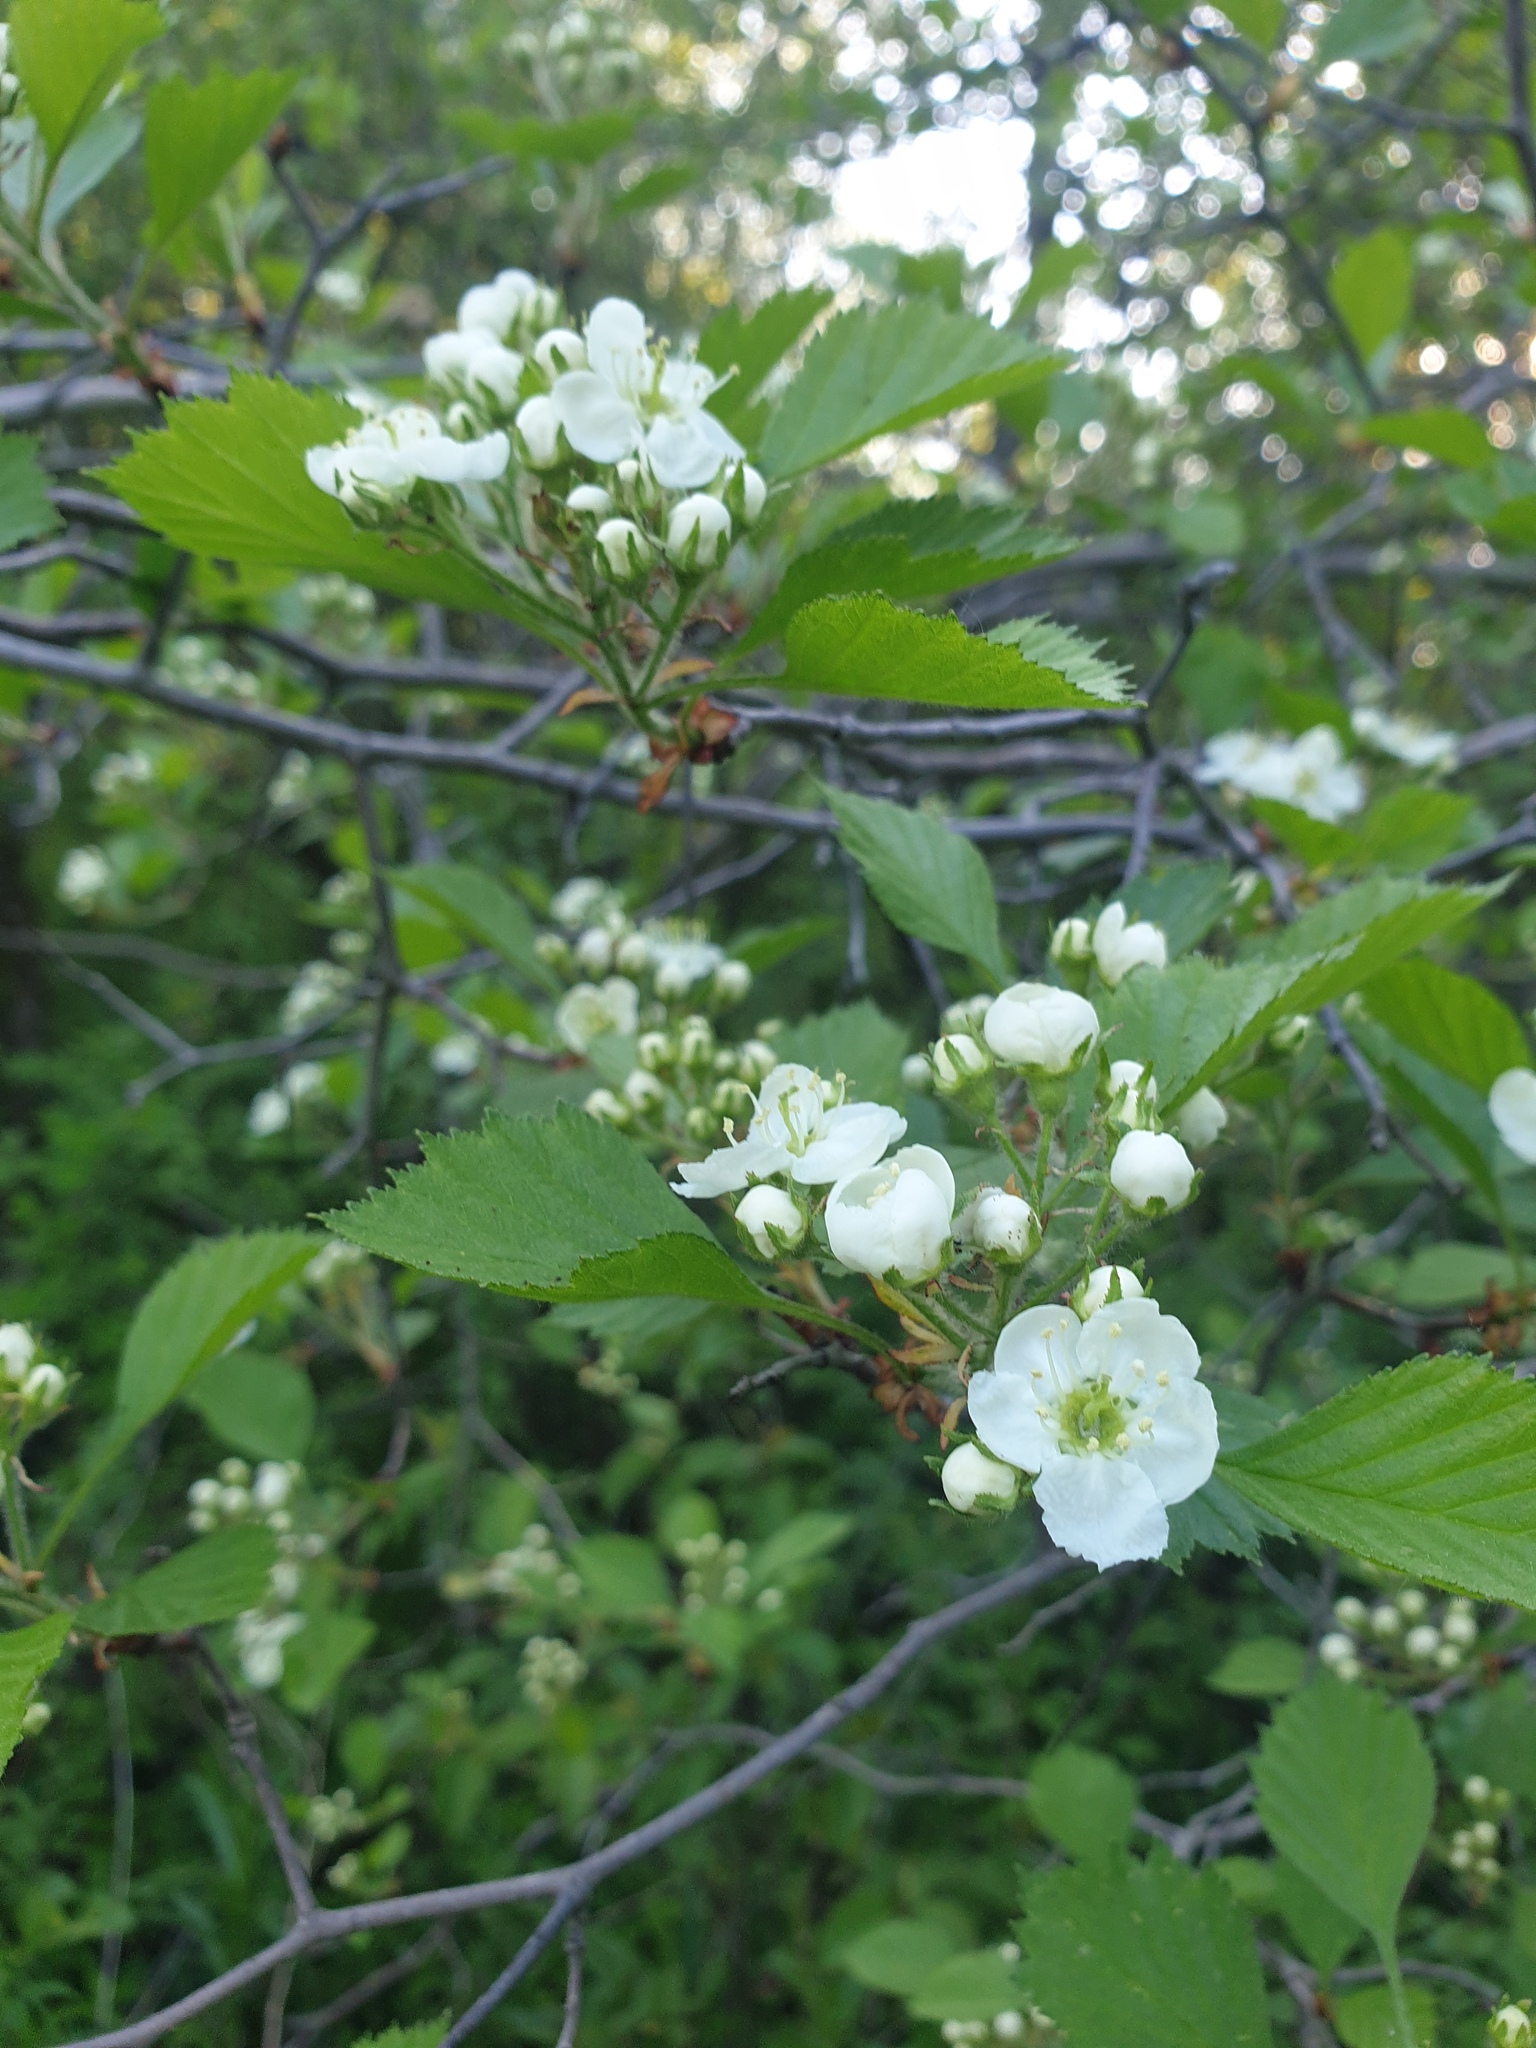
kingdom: Plantae
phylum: Tracheophyta
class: Magnoliopsida
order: Rosales
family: Rosaceae
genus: Crataegus
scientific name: Crataegus chrysocarpa
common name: Fire-berry hawthorn
